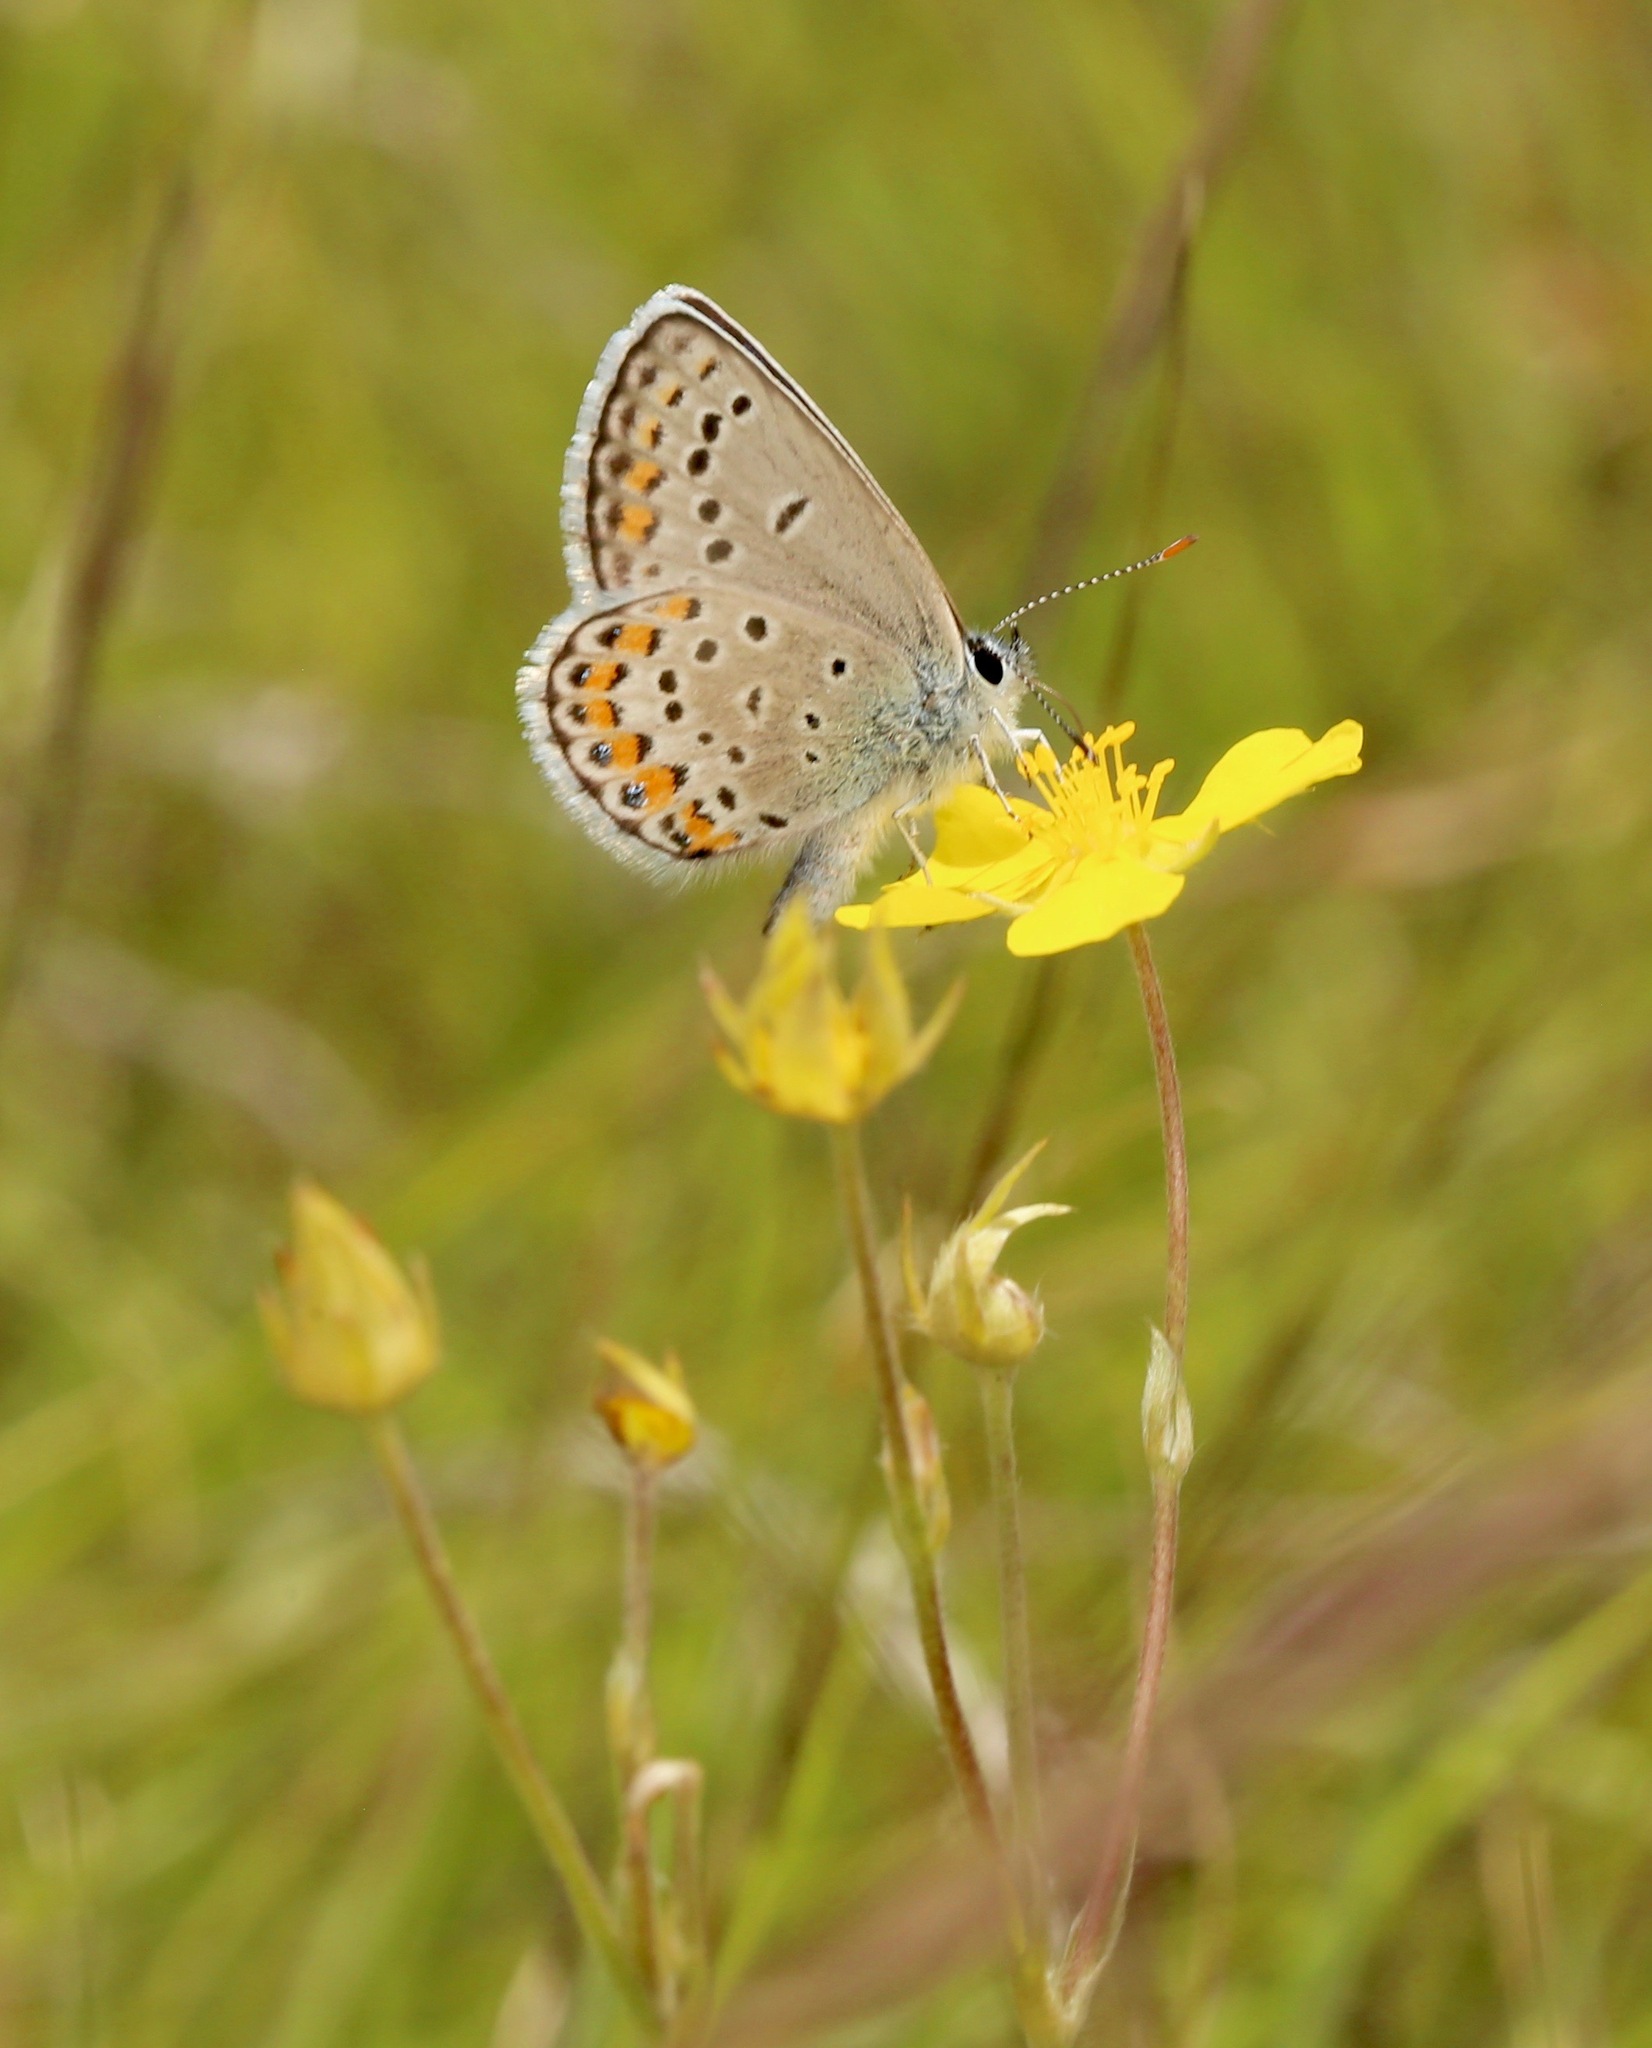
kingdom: Animalia
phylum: Arthropoda
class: Insecta
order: Lepidoptera
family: Lycaenidae
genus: Lycaeides
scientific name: Lycaeides melissa
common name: Melissa blue
